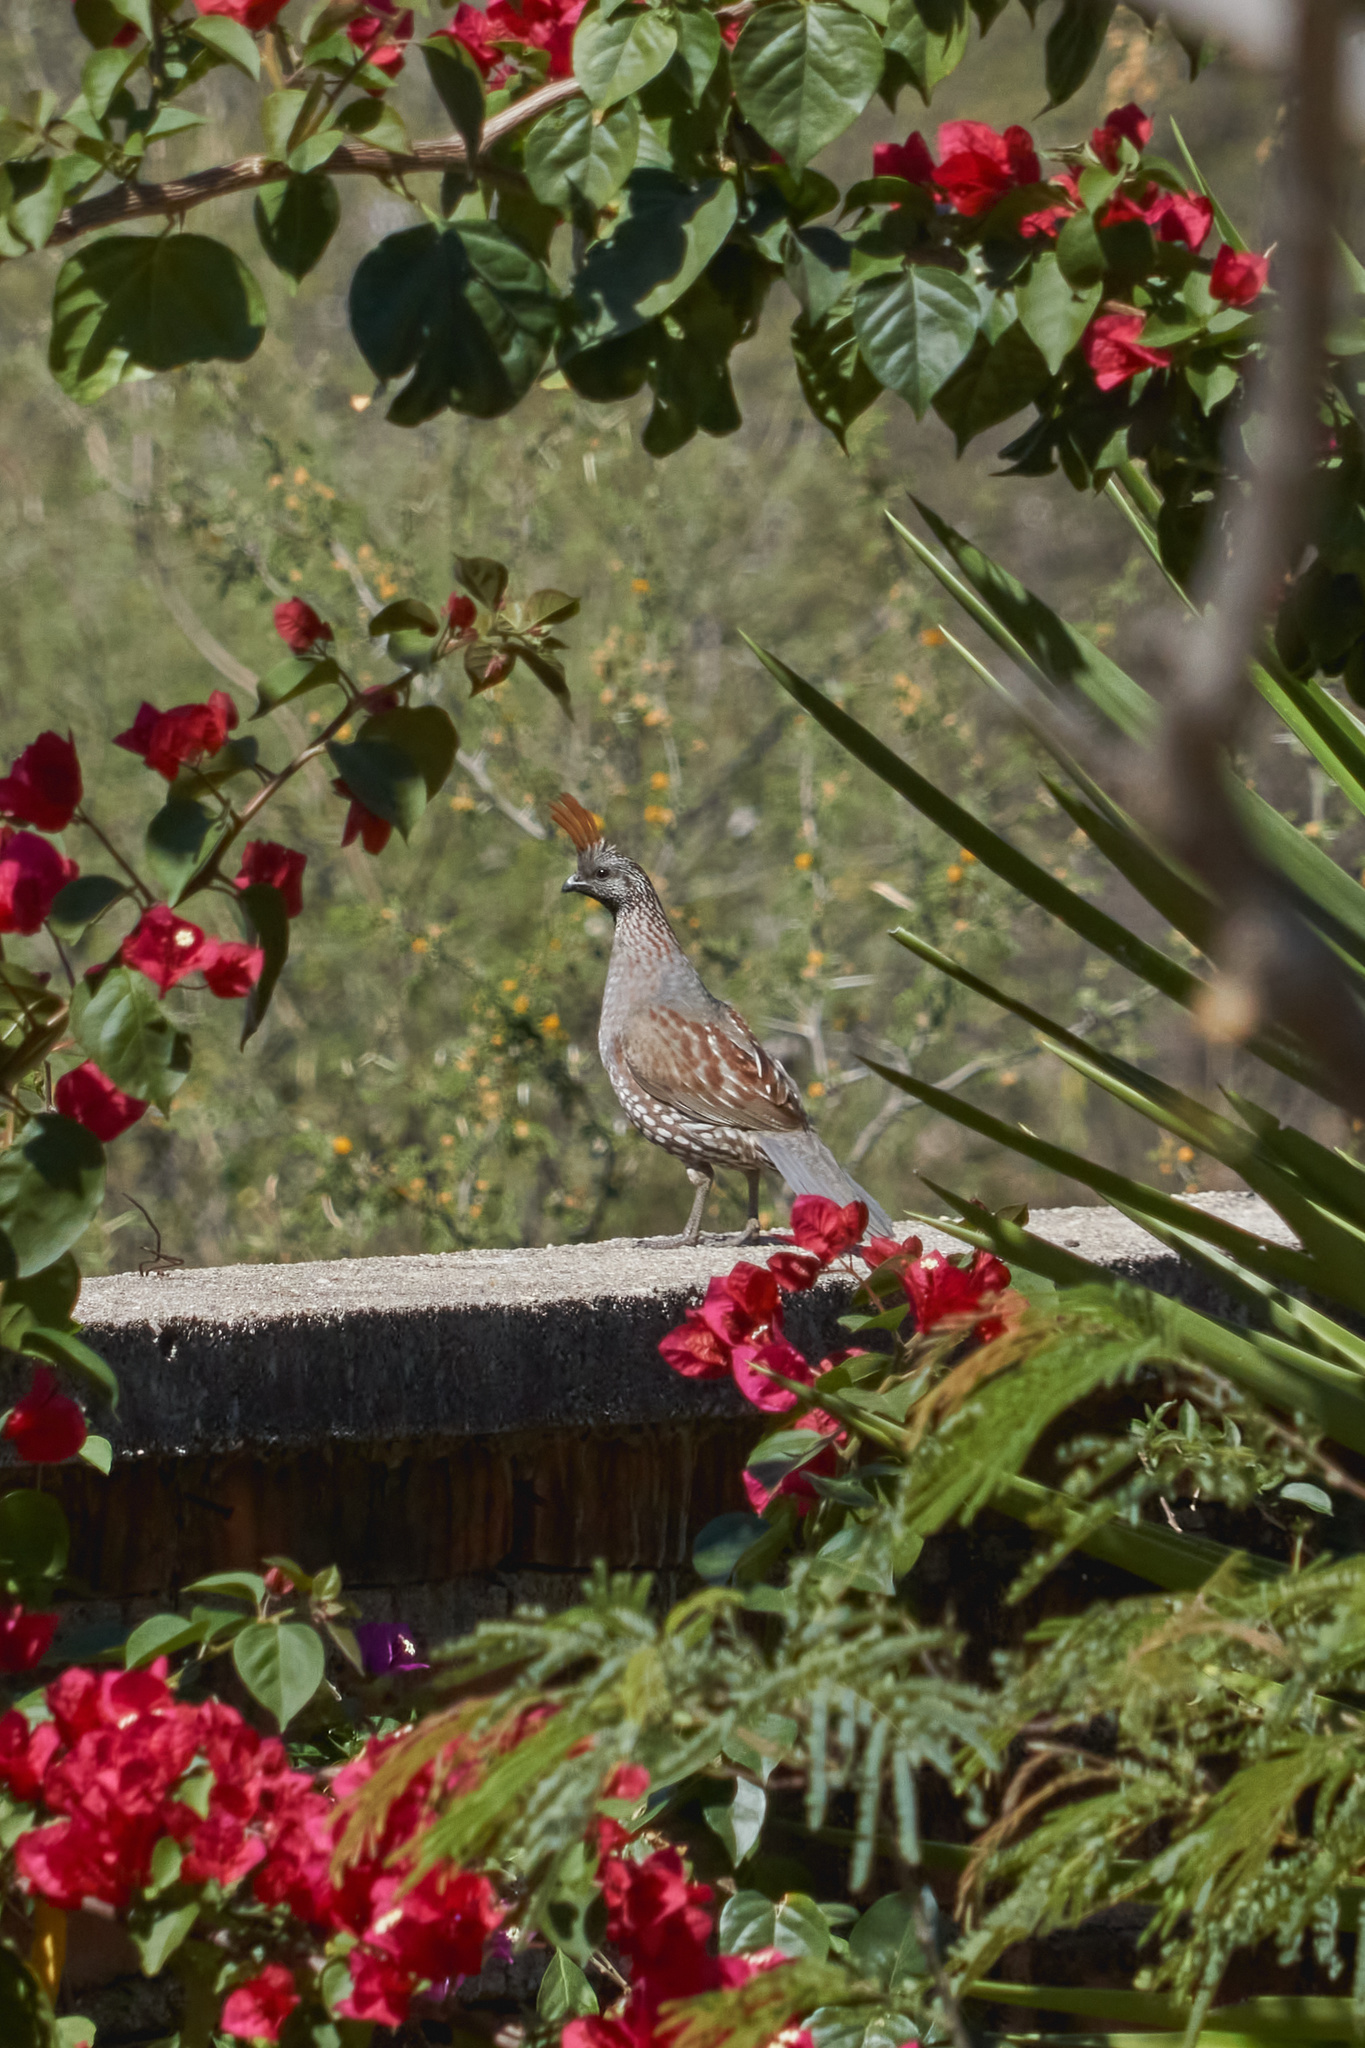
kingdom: Animalia
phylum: Chordata
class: Aves
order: Galliformes
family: Odontophoridae
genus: Callipepla
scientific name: Callipepla douglasii
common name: Elegant quail
